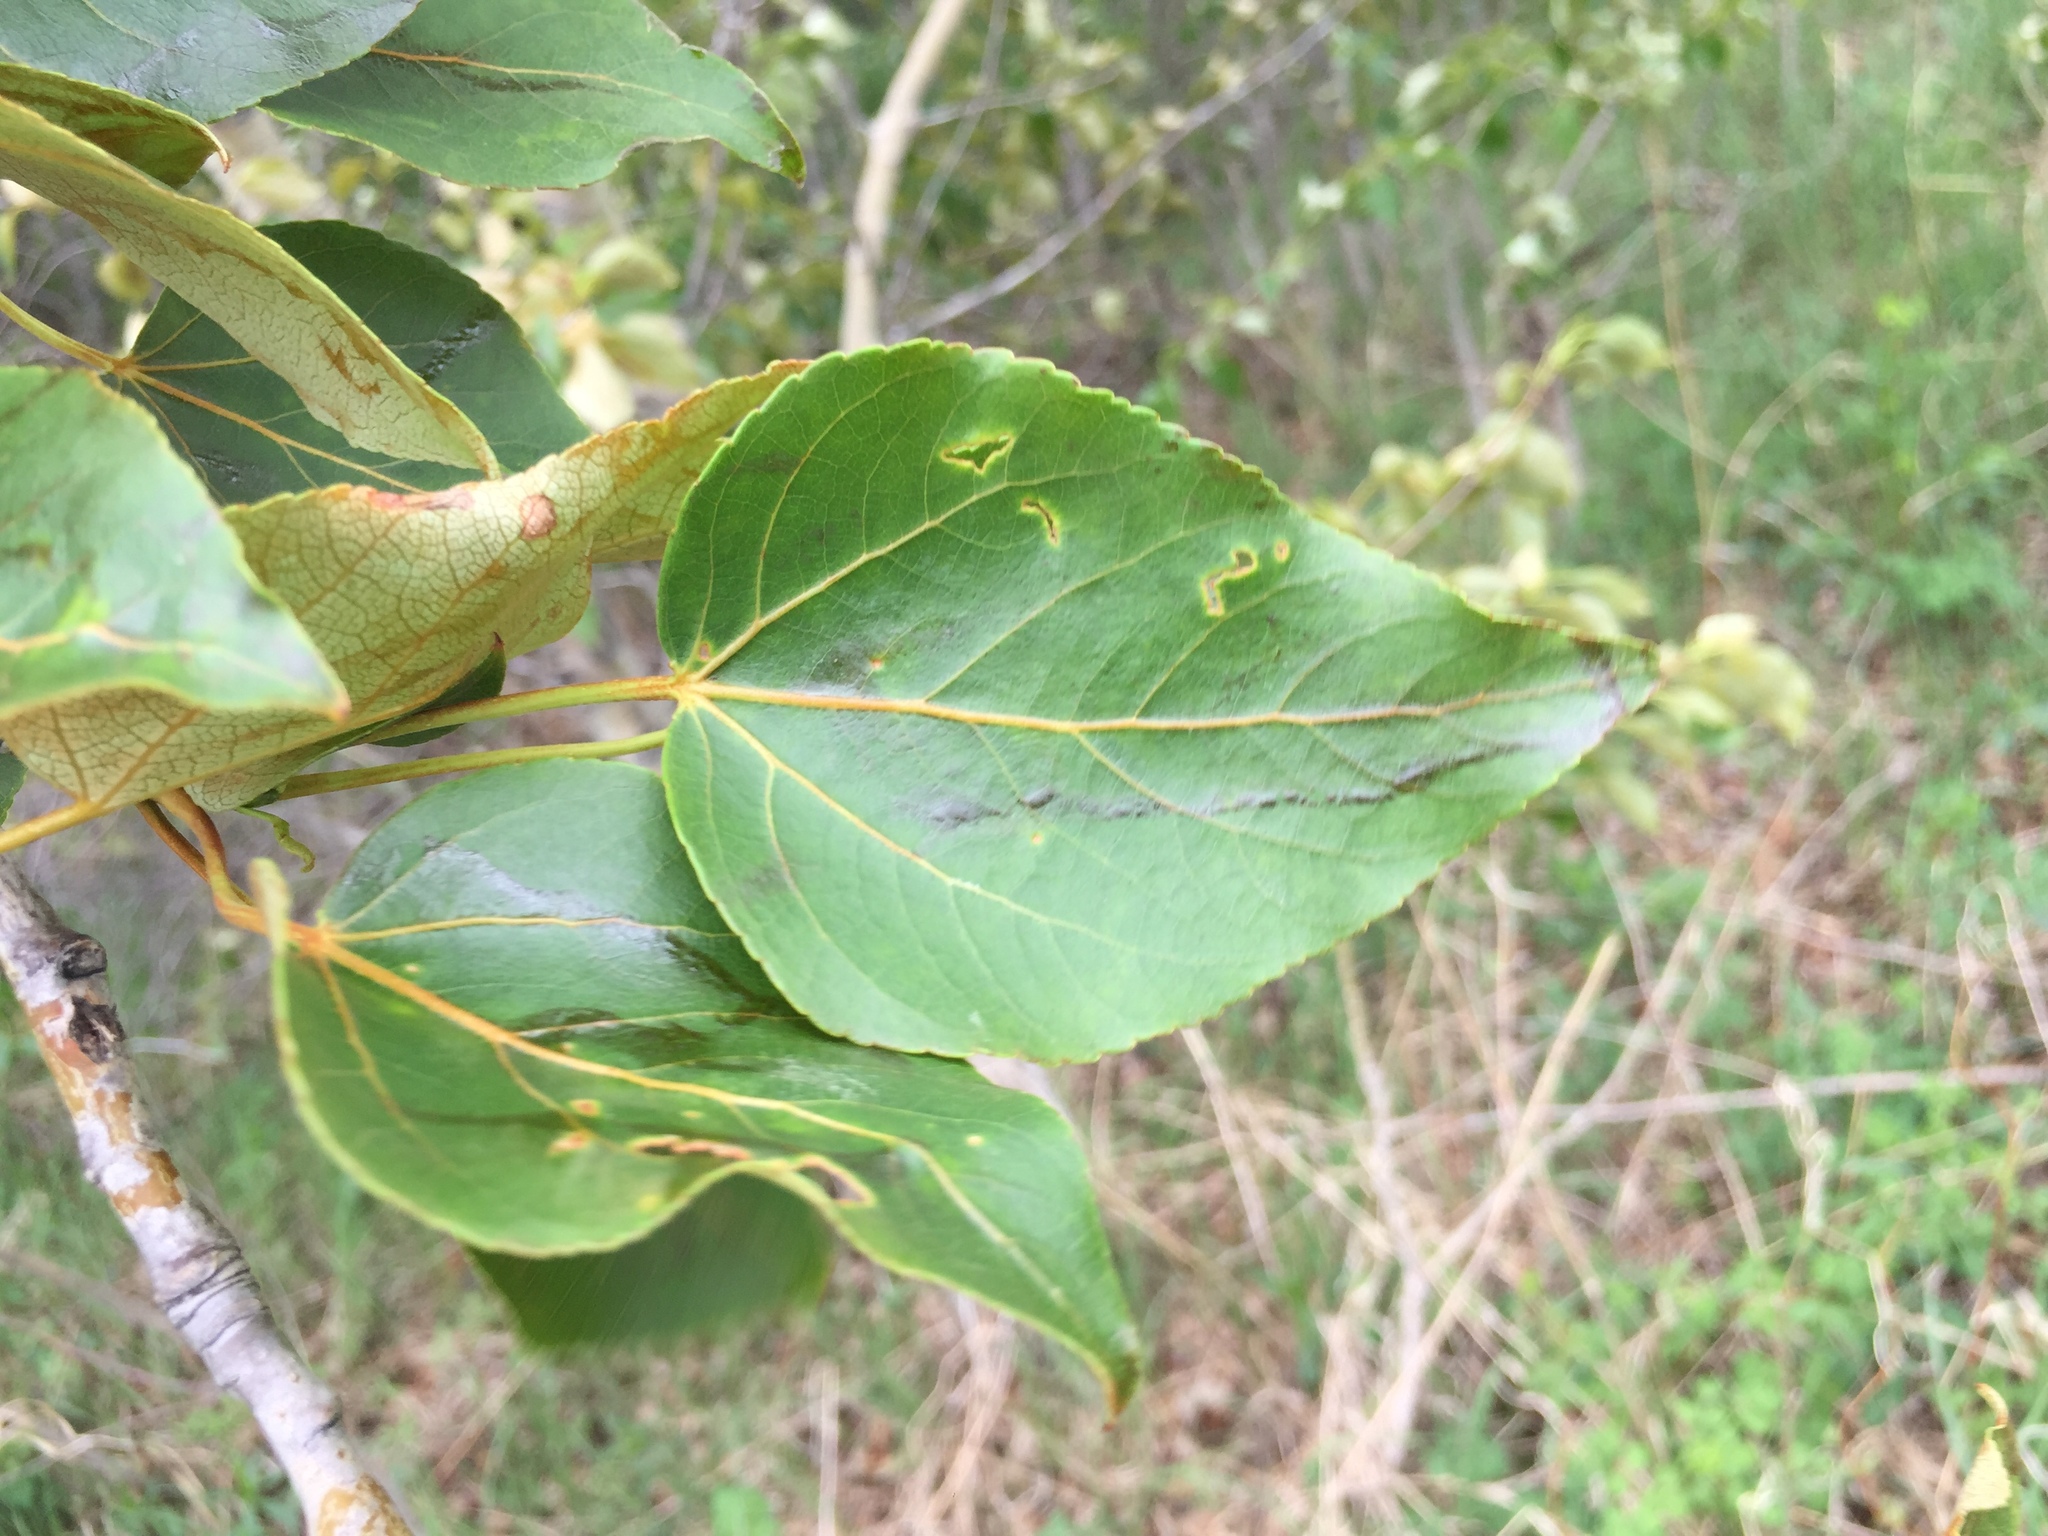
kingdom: Plantae
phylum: Tracheophyta
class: Magnoliopsida
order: Malpighiales
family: Salicaceae
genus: Populus
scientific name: Populus balsamifera
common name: Balsam poplar
